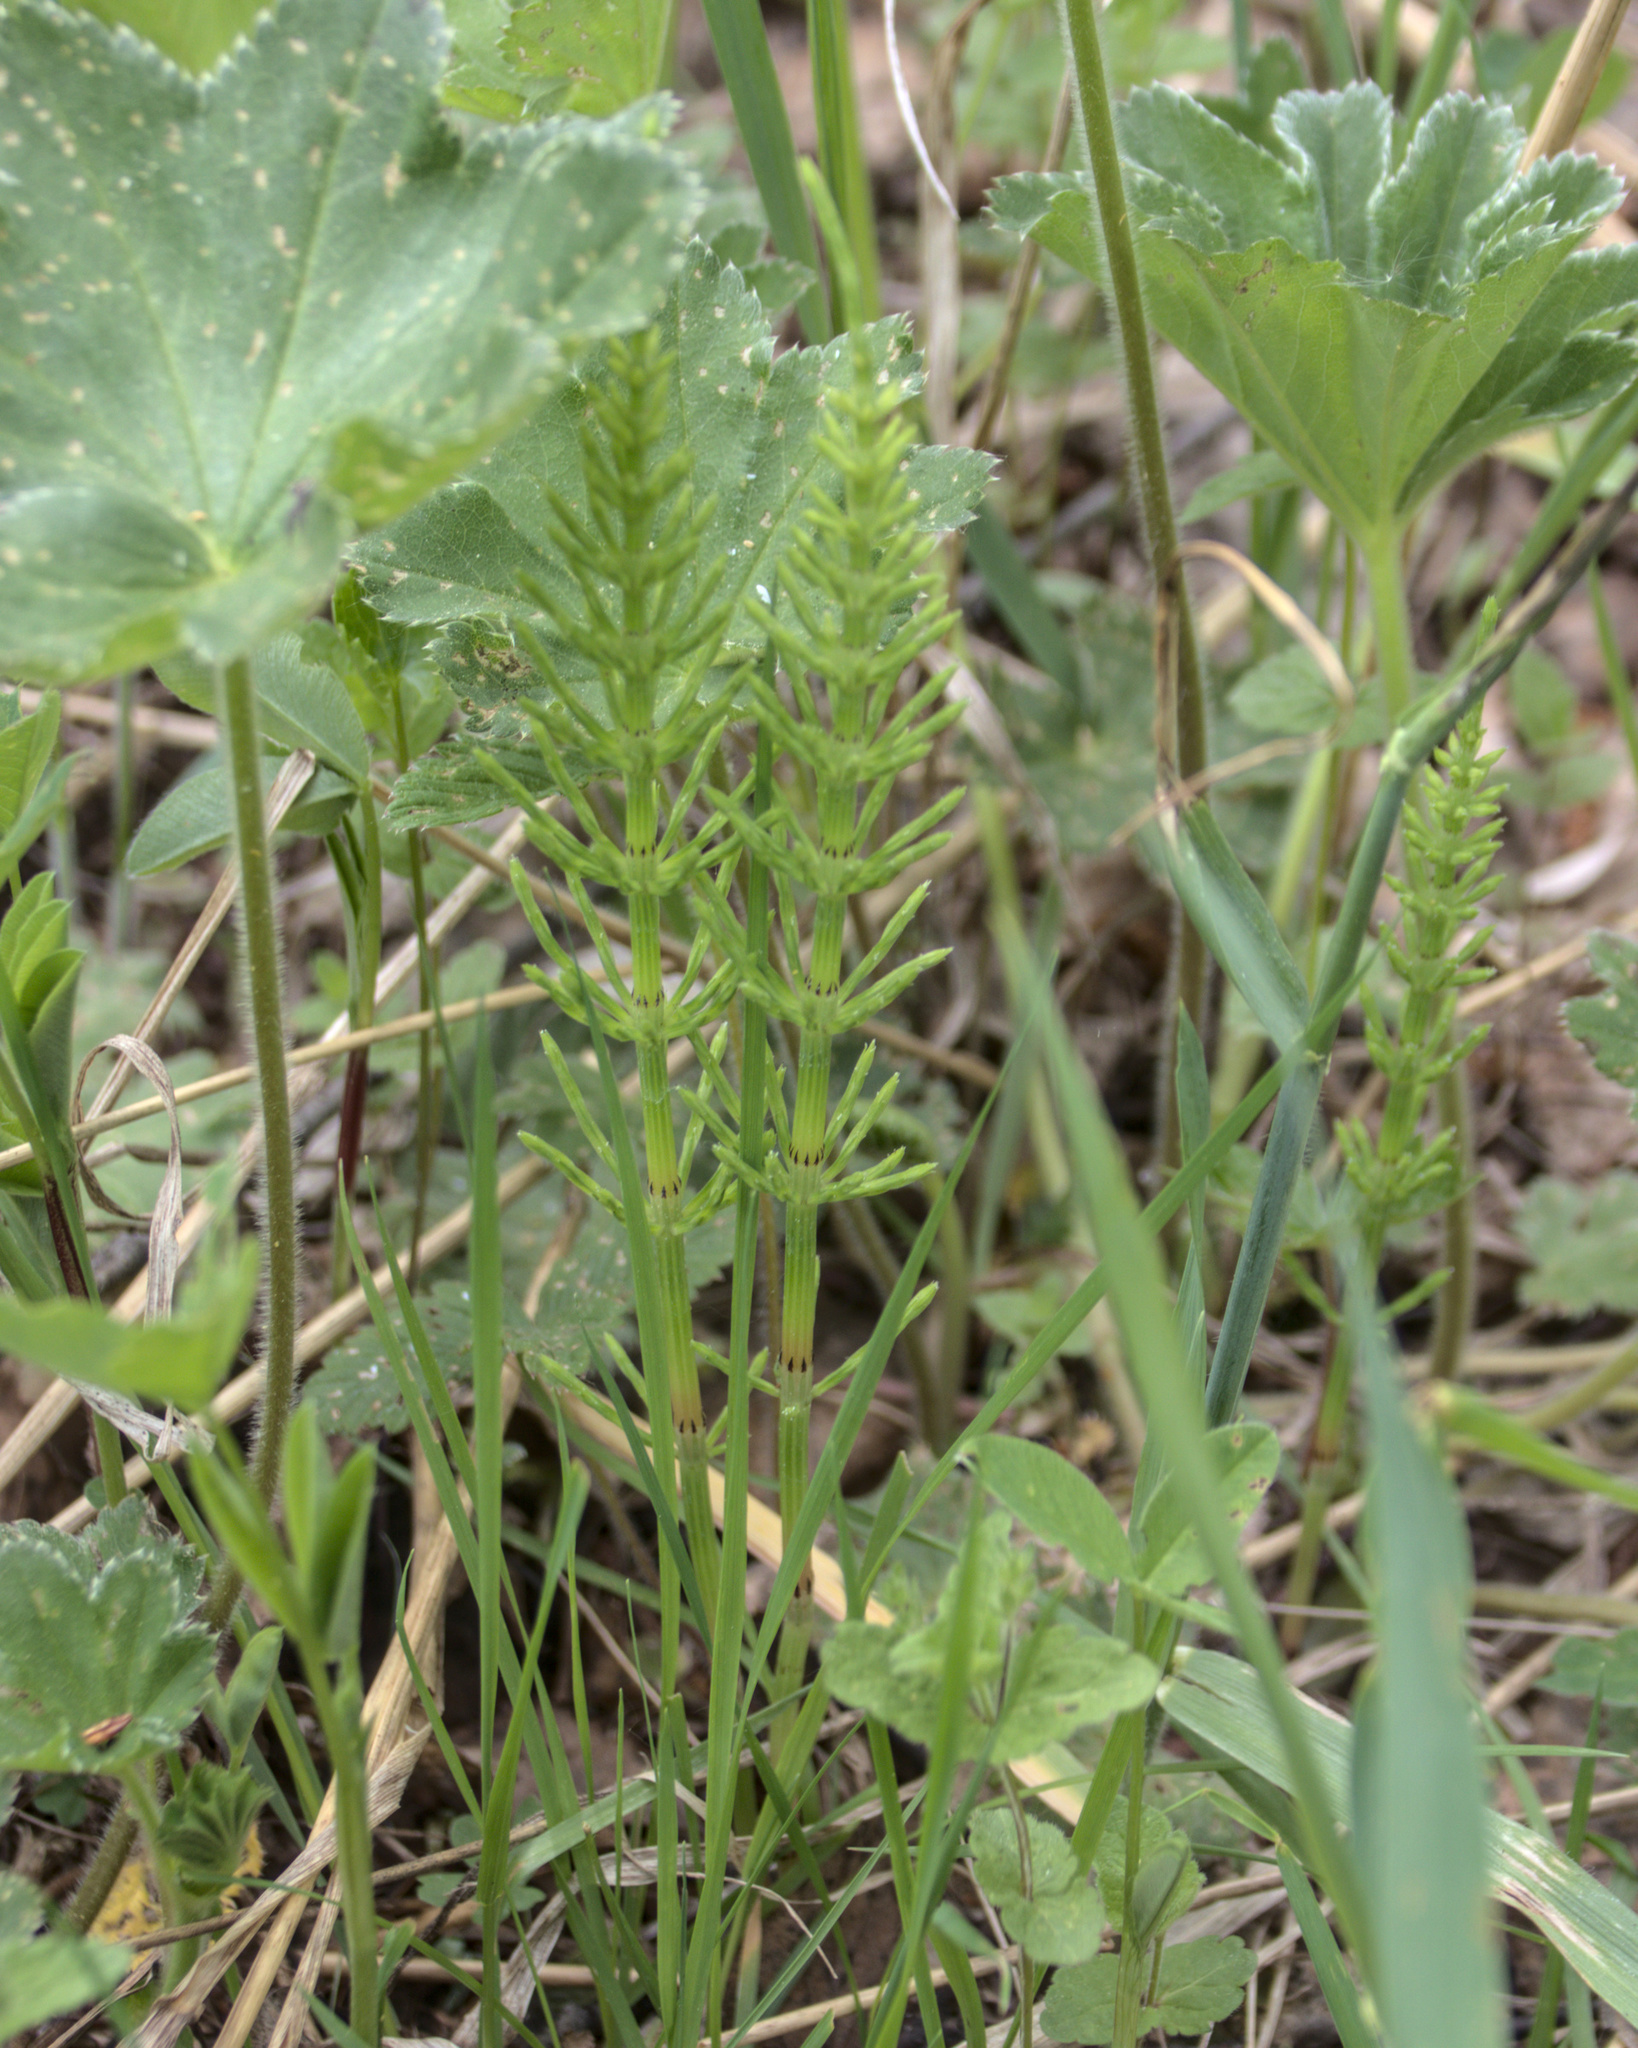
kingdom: Plantae
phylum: Tracheophyta
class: Polypodiopsida
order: Equisetales
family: Equisetaceae
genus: Equisetum
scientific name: Equisetum arvense
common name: Field horsetail
